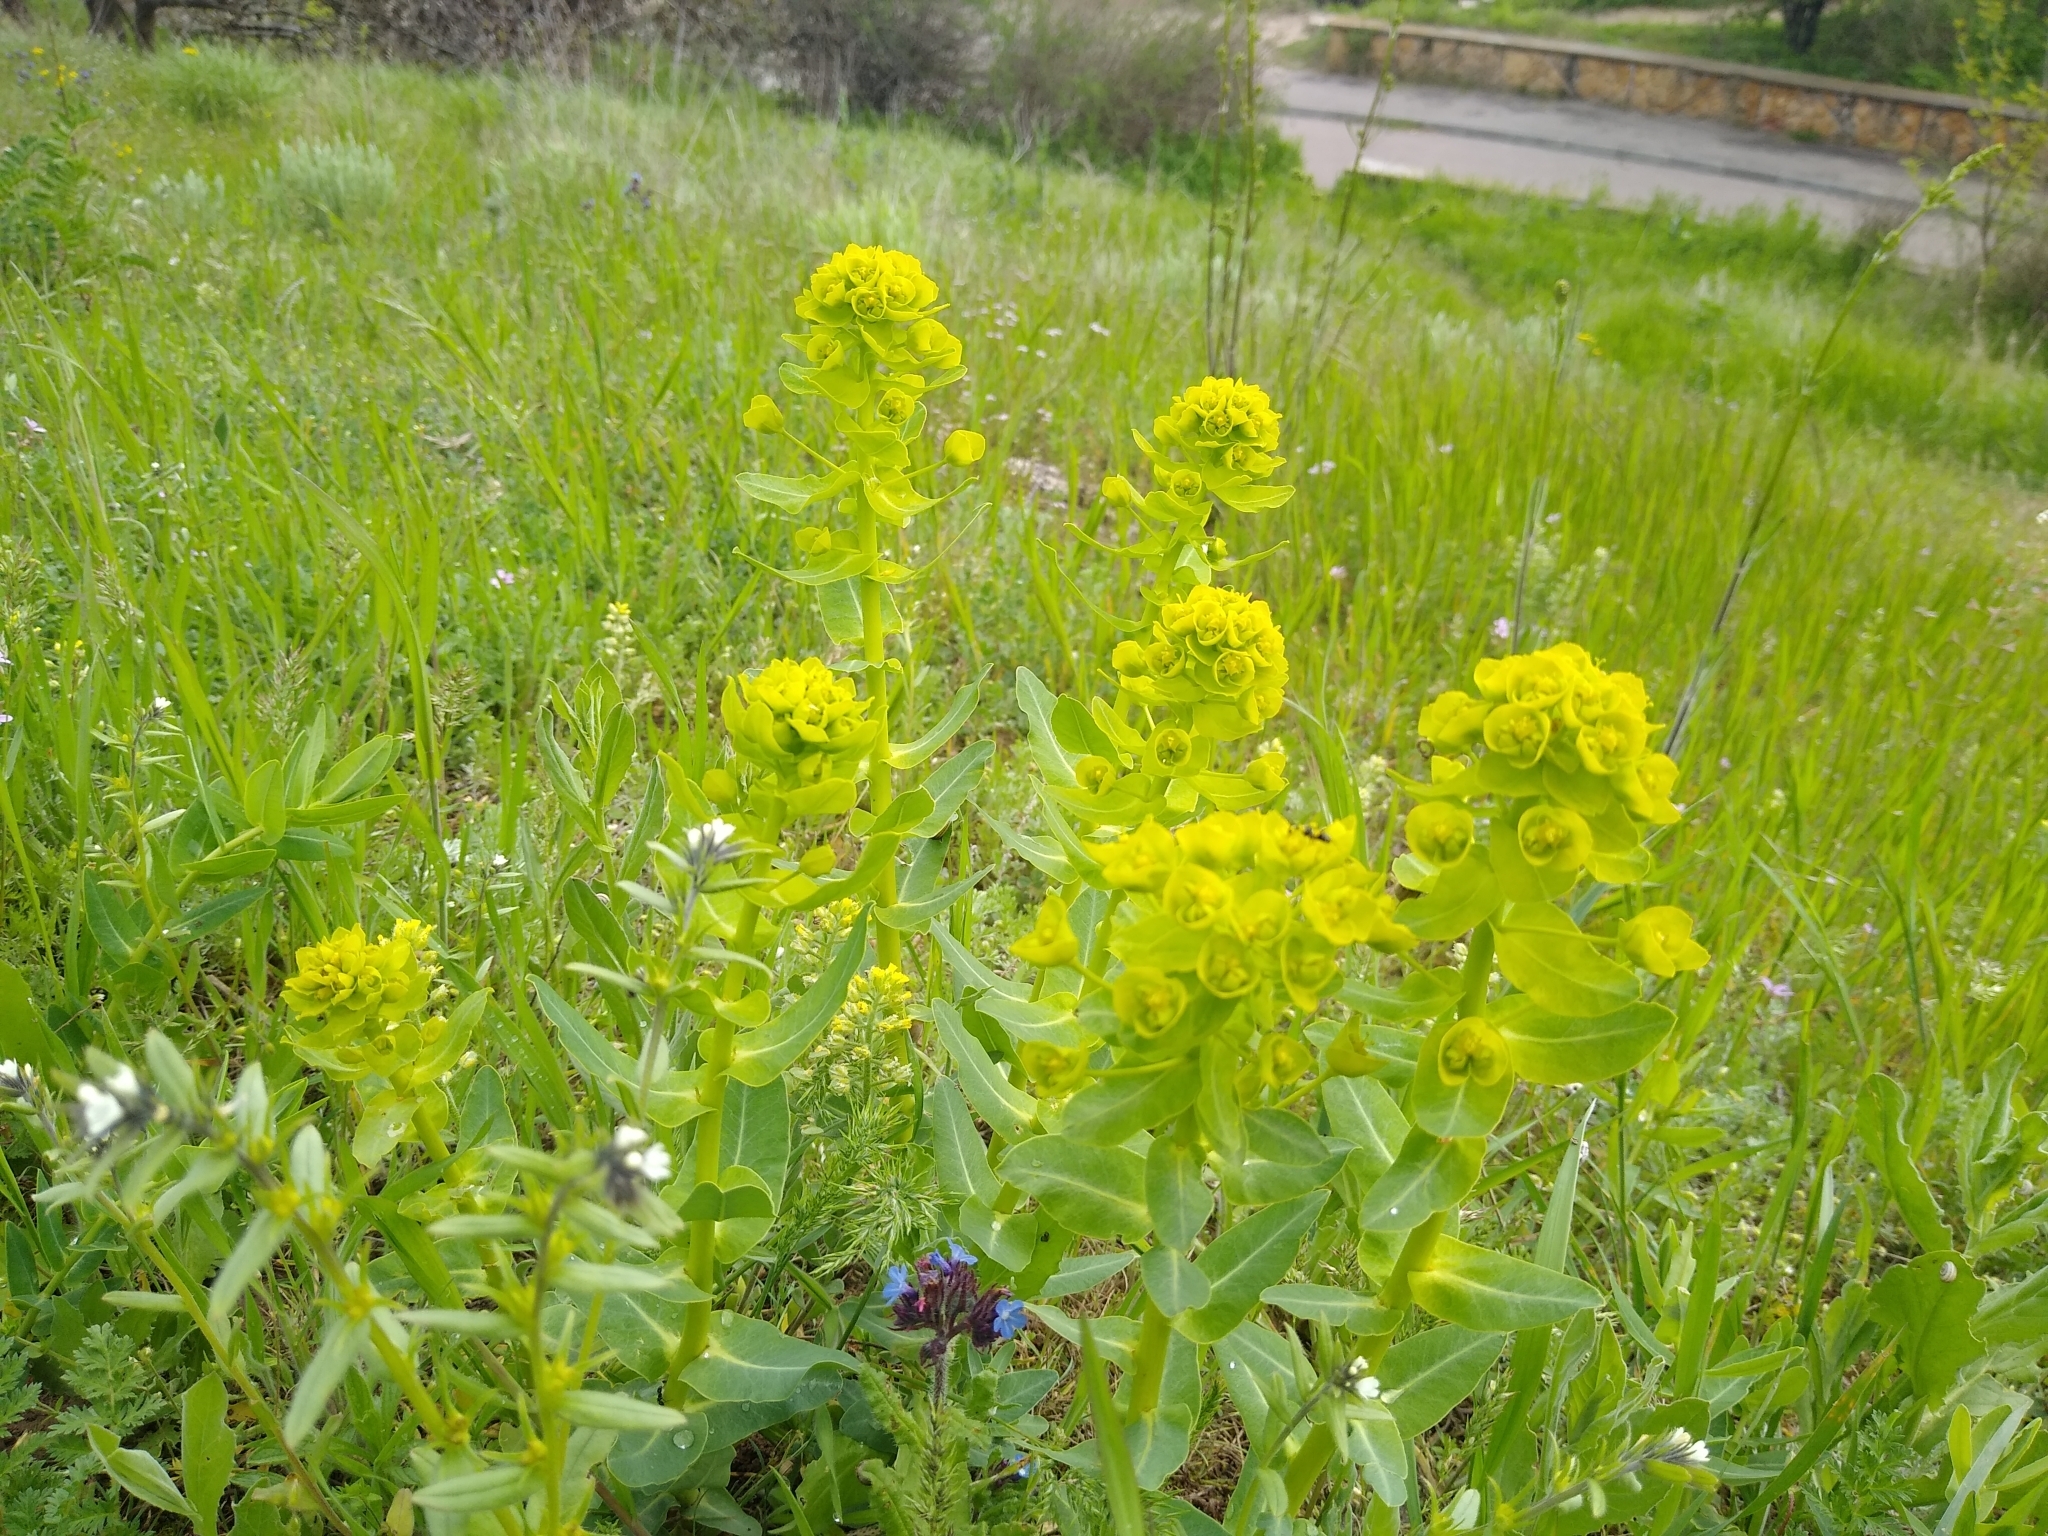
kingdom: Plantae
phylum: Tracheophyta
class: Magnoliopsida
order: Malpighiales
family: Euphorbiaceae
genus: Euphorbia
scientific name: Euphorbia agraria
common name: Urban spurge
